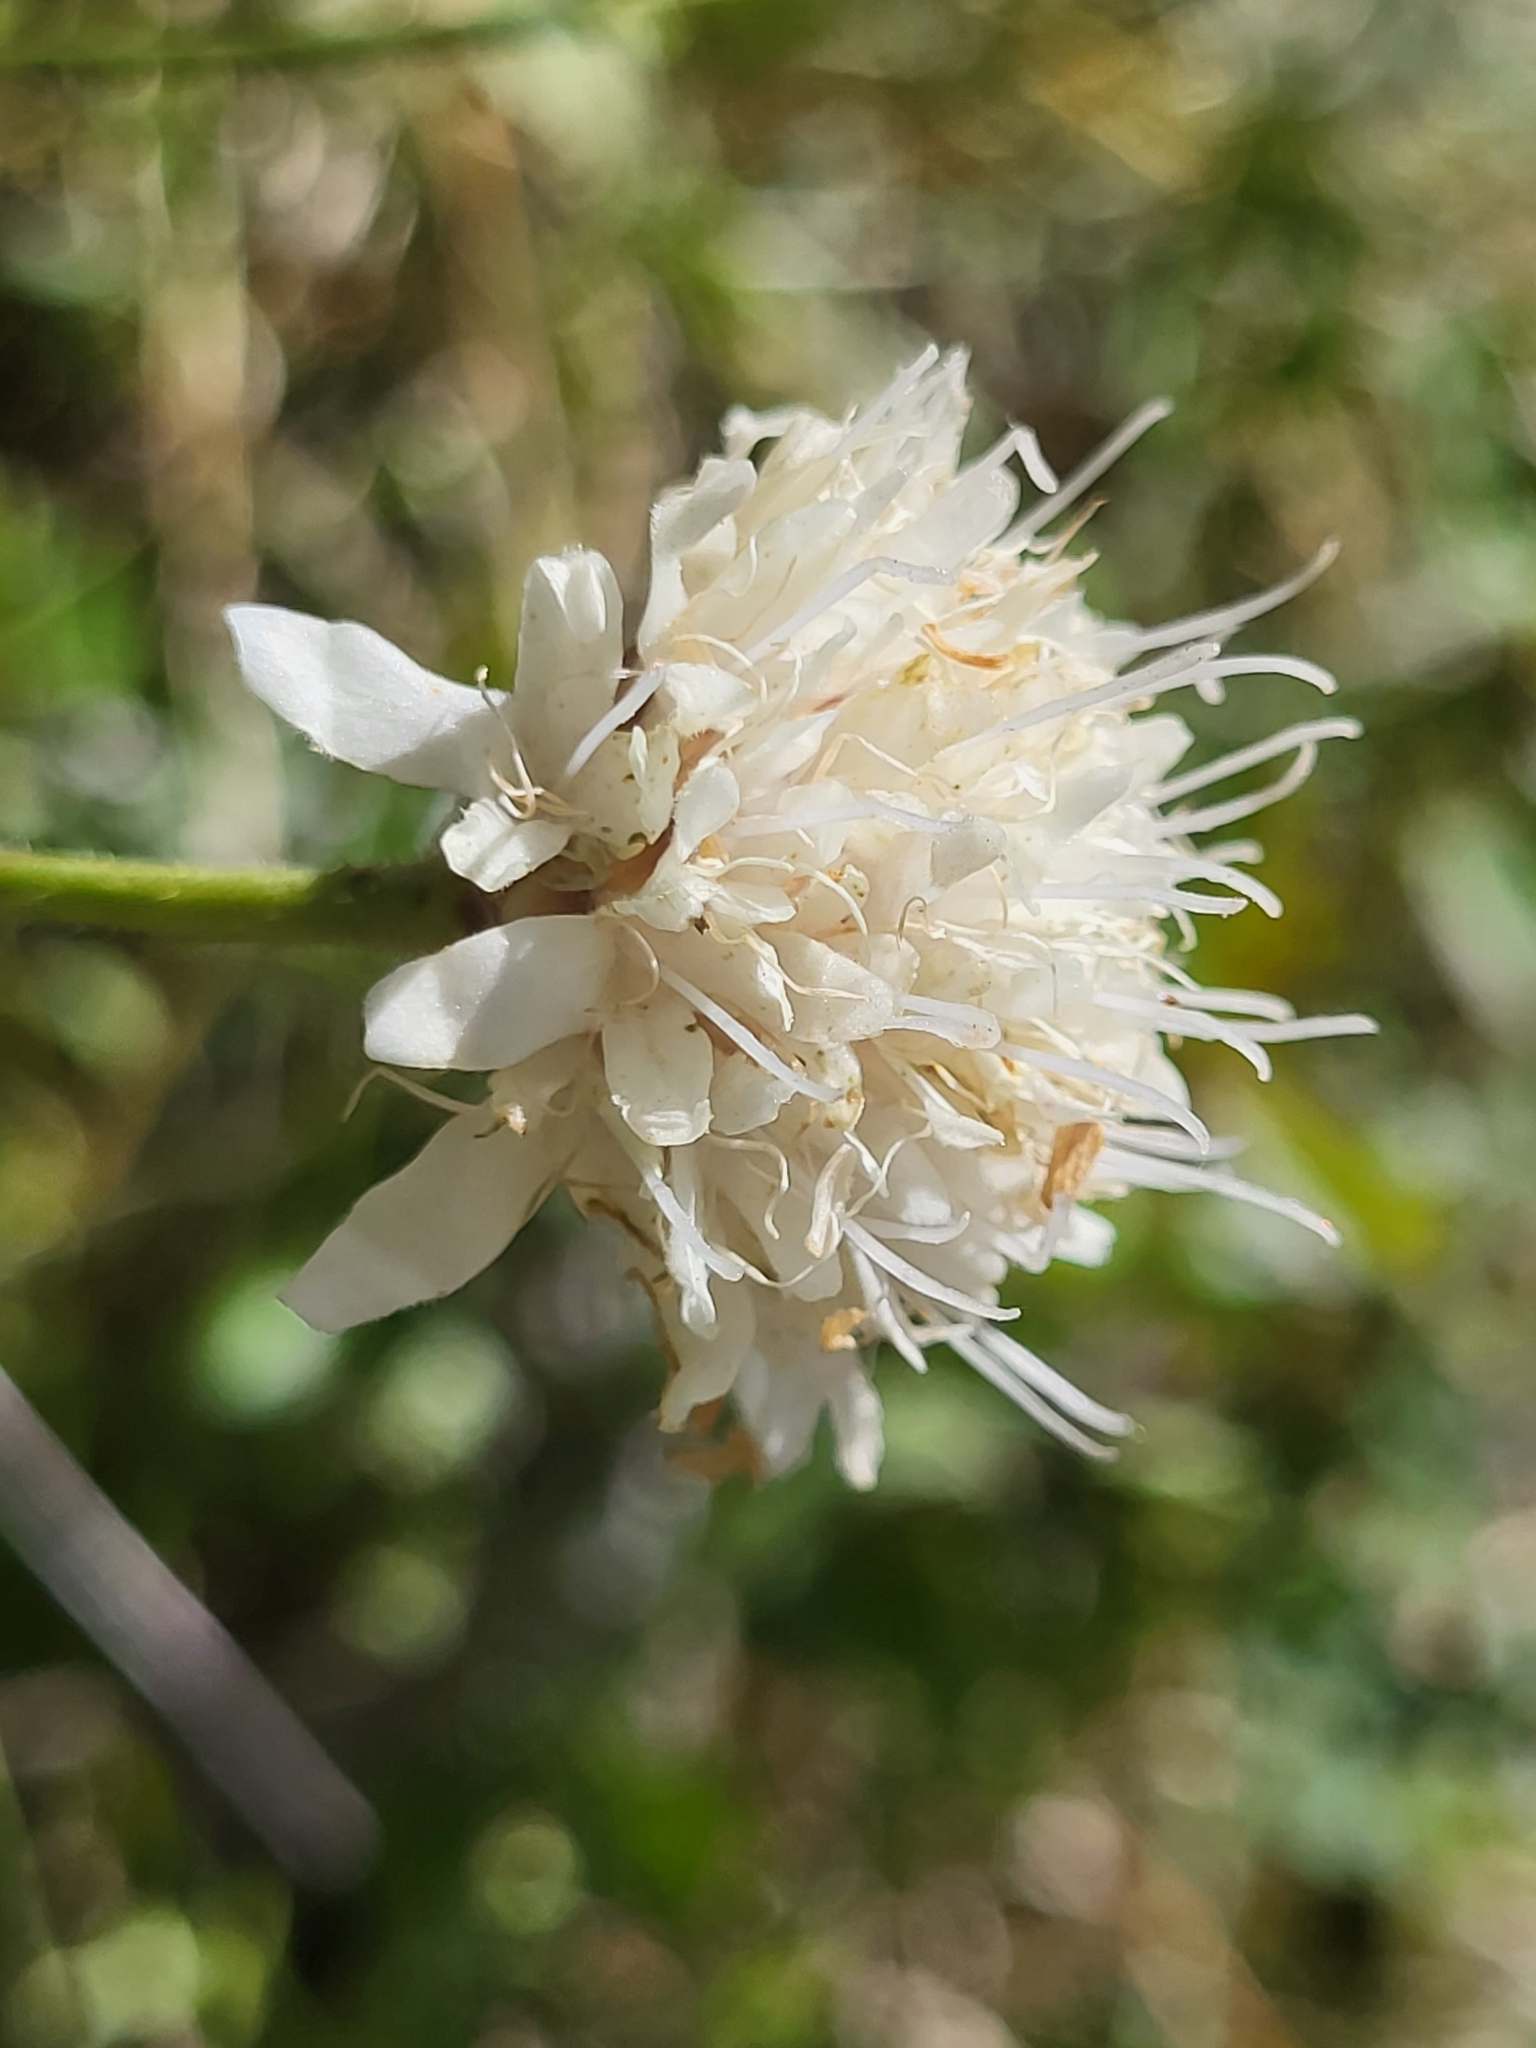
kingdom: Plantae
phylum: Tracheophyta
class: Magnoliopsida
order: Dipsacales
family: Caprifoliaceae
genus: Cephalaria
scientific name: Cephalaria leucantha
